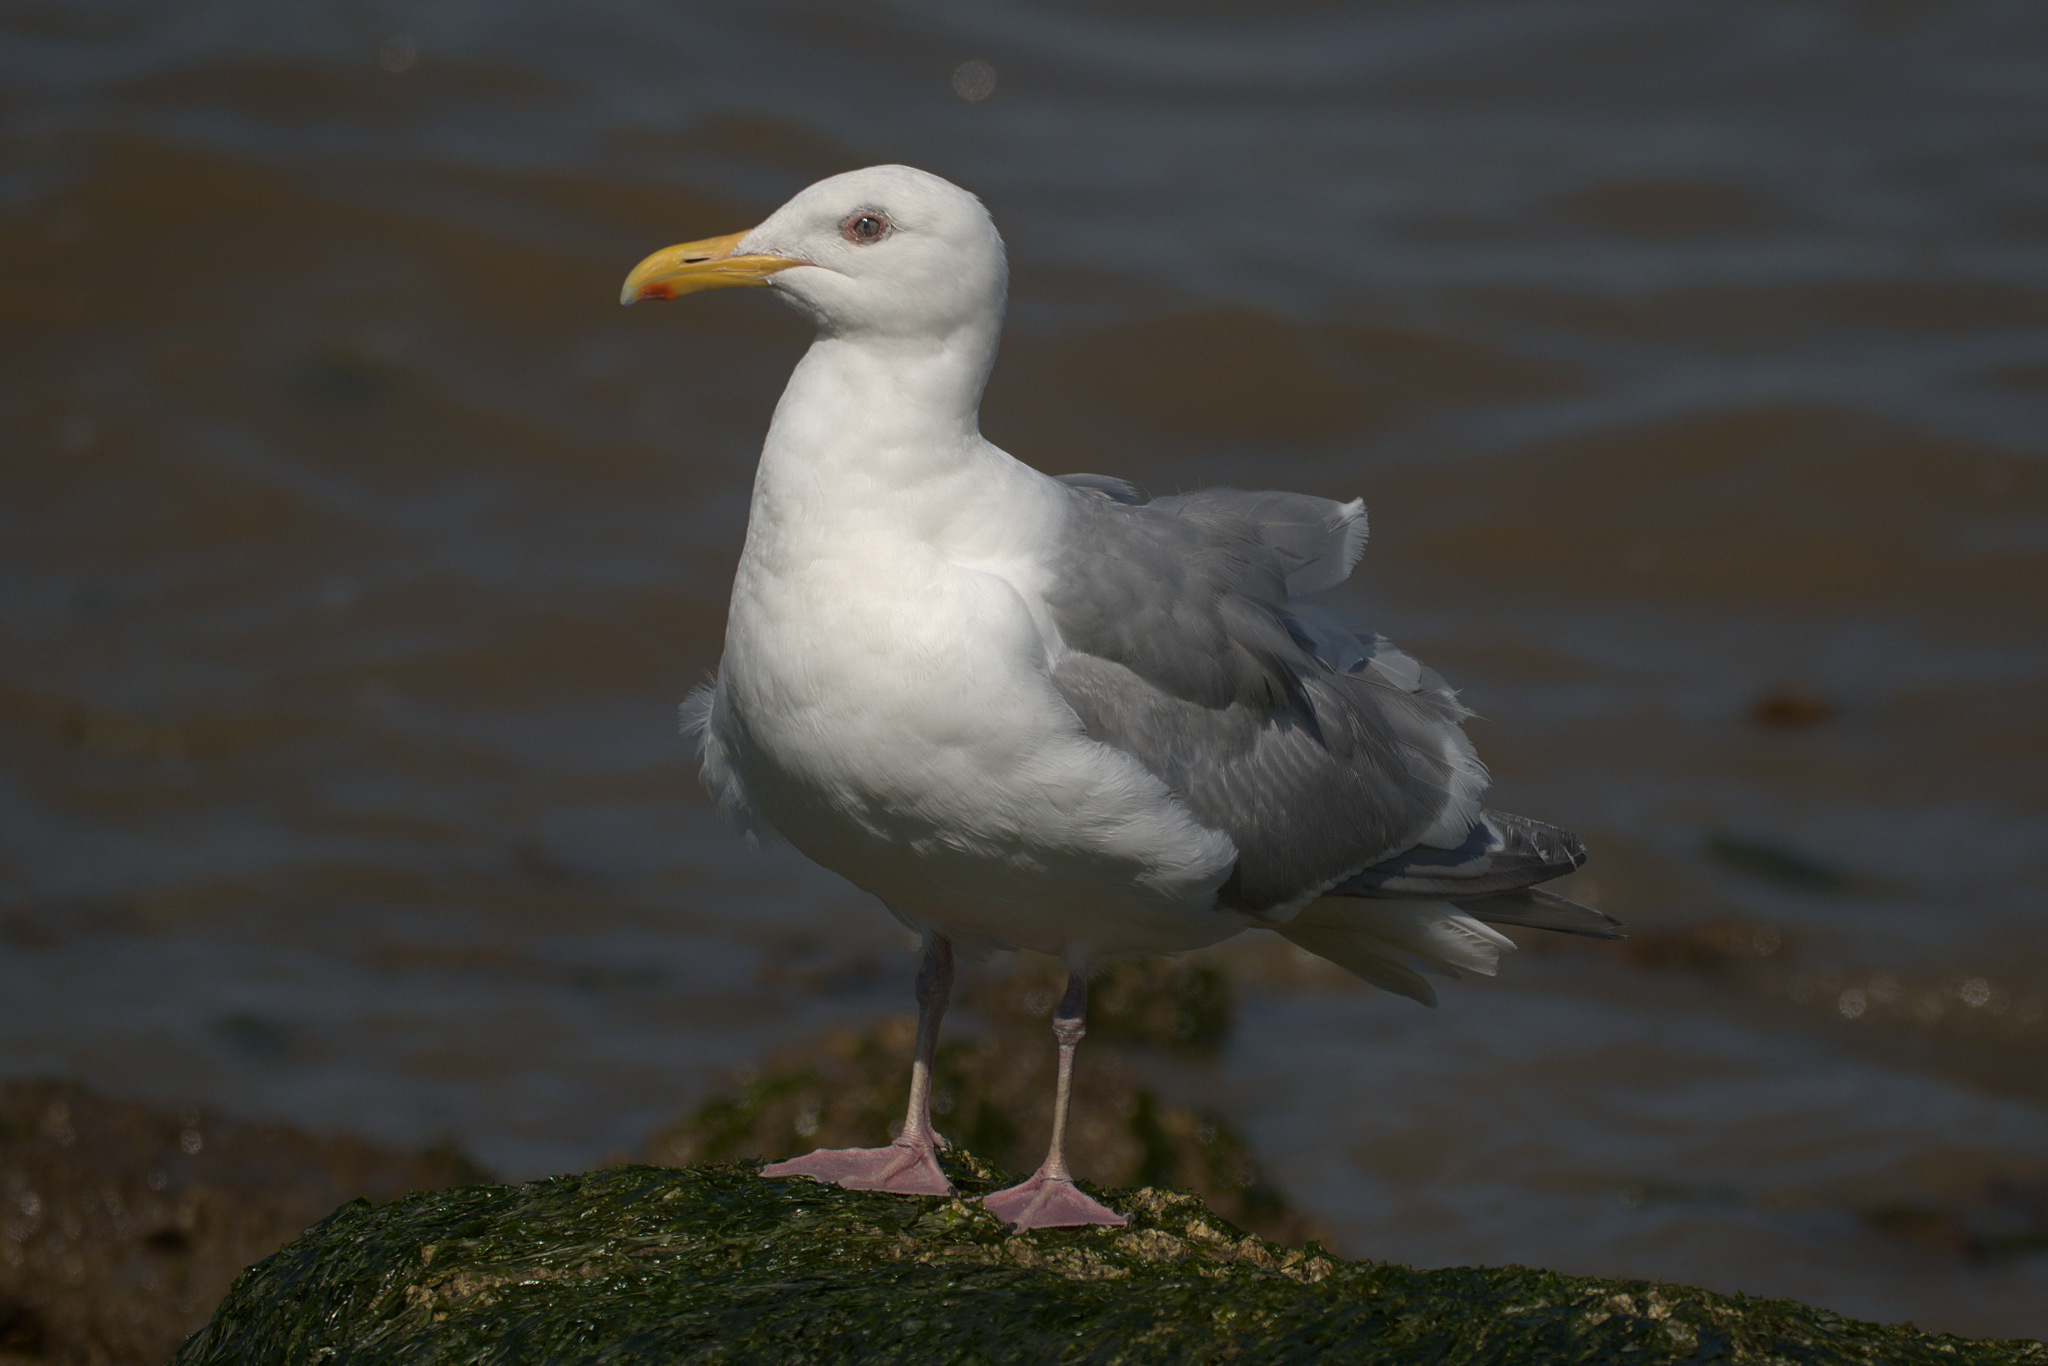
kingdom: Animalia
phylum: Chordata
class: Aves
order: Charadriiformes
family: Laridae
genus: Larus
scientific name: Larus glaucescens
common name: Glaucous-winged gull
